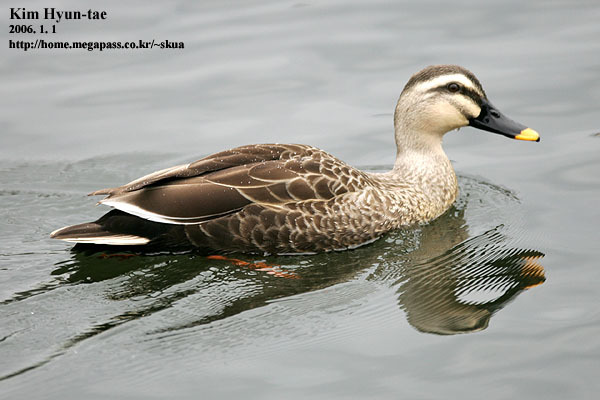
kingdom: Animalia
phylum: Chordata
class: Aves
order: Anseriformes
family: Anatidae
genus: Anas
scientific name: Anas zonorhyncha
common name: Eastern spot-billed duck
